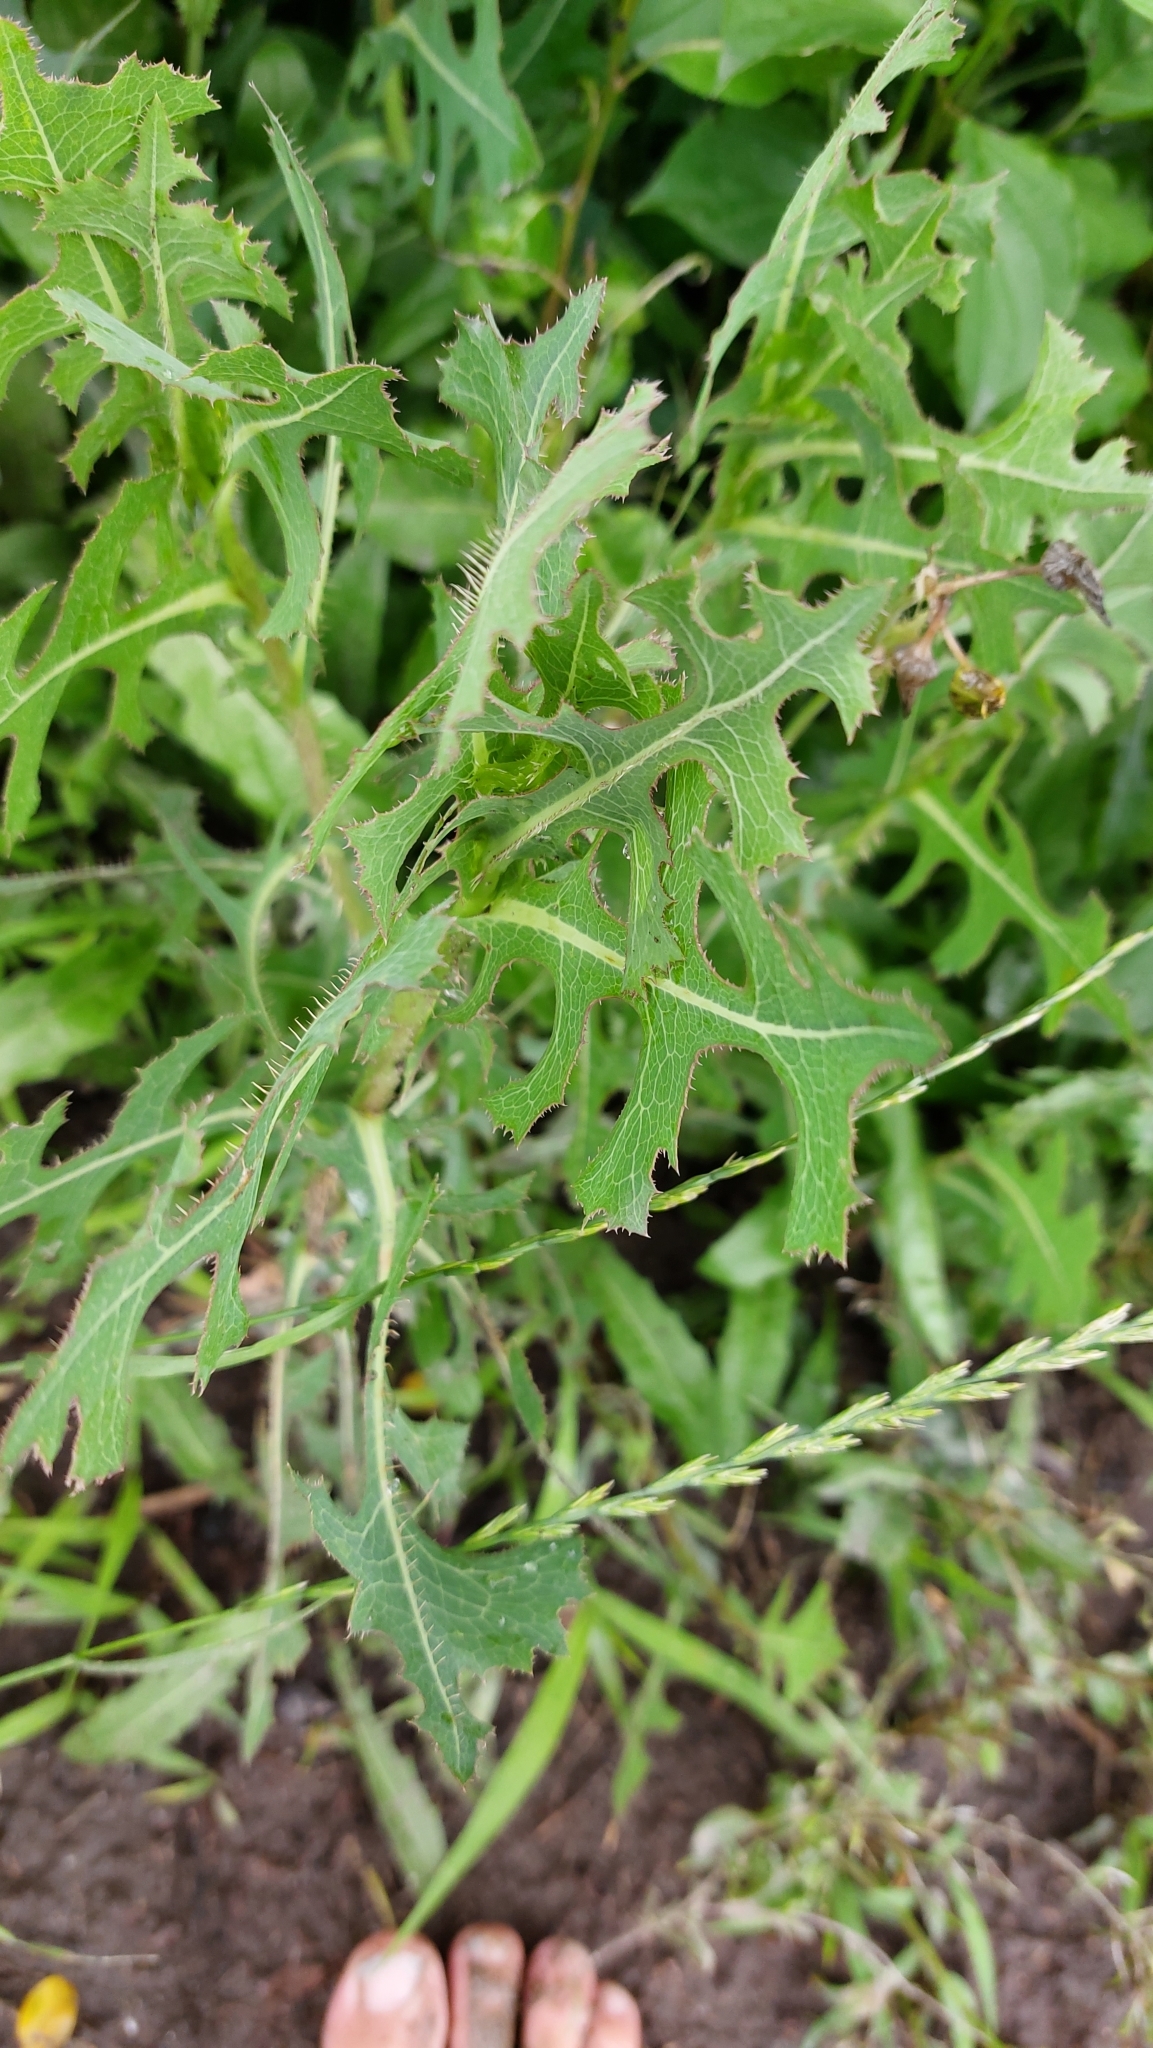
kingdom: Plantae
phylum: Tracheophyta
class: Magnoliopsida
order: Asterales
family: Asteraceae
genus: Lactuca
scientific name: Lactuca serriola
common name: Prickly lettuce
